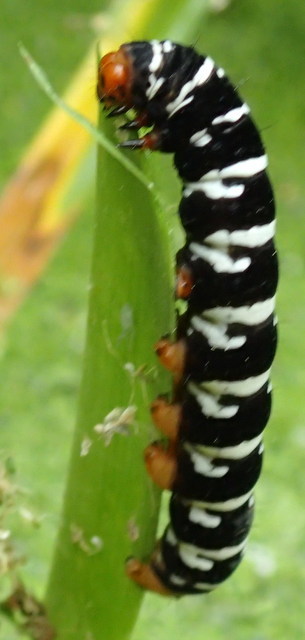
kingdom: Animalia
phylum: Arthropoda
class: Insecta
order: Lepidoptera
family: Noctuidae
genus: Xanthopastis
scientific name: Xanthopastis regnatrix
